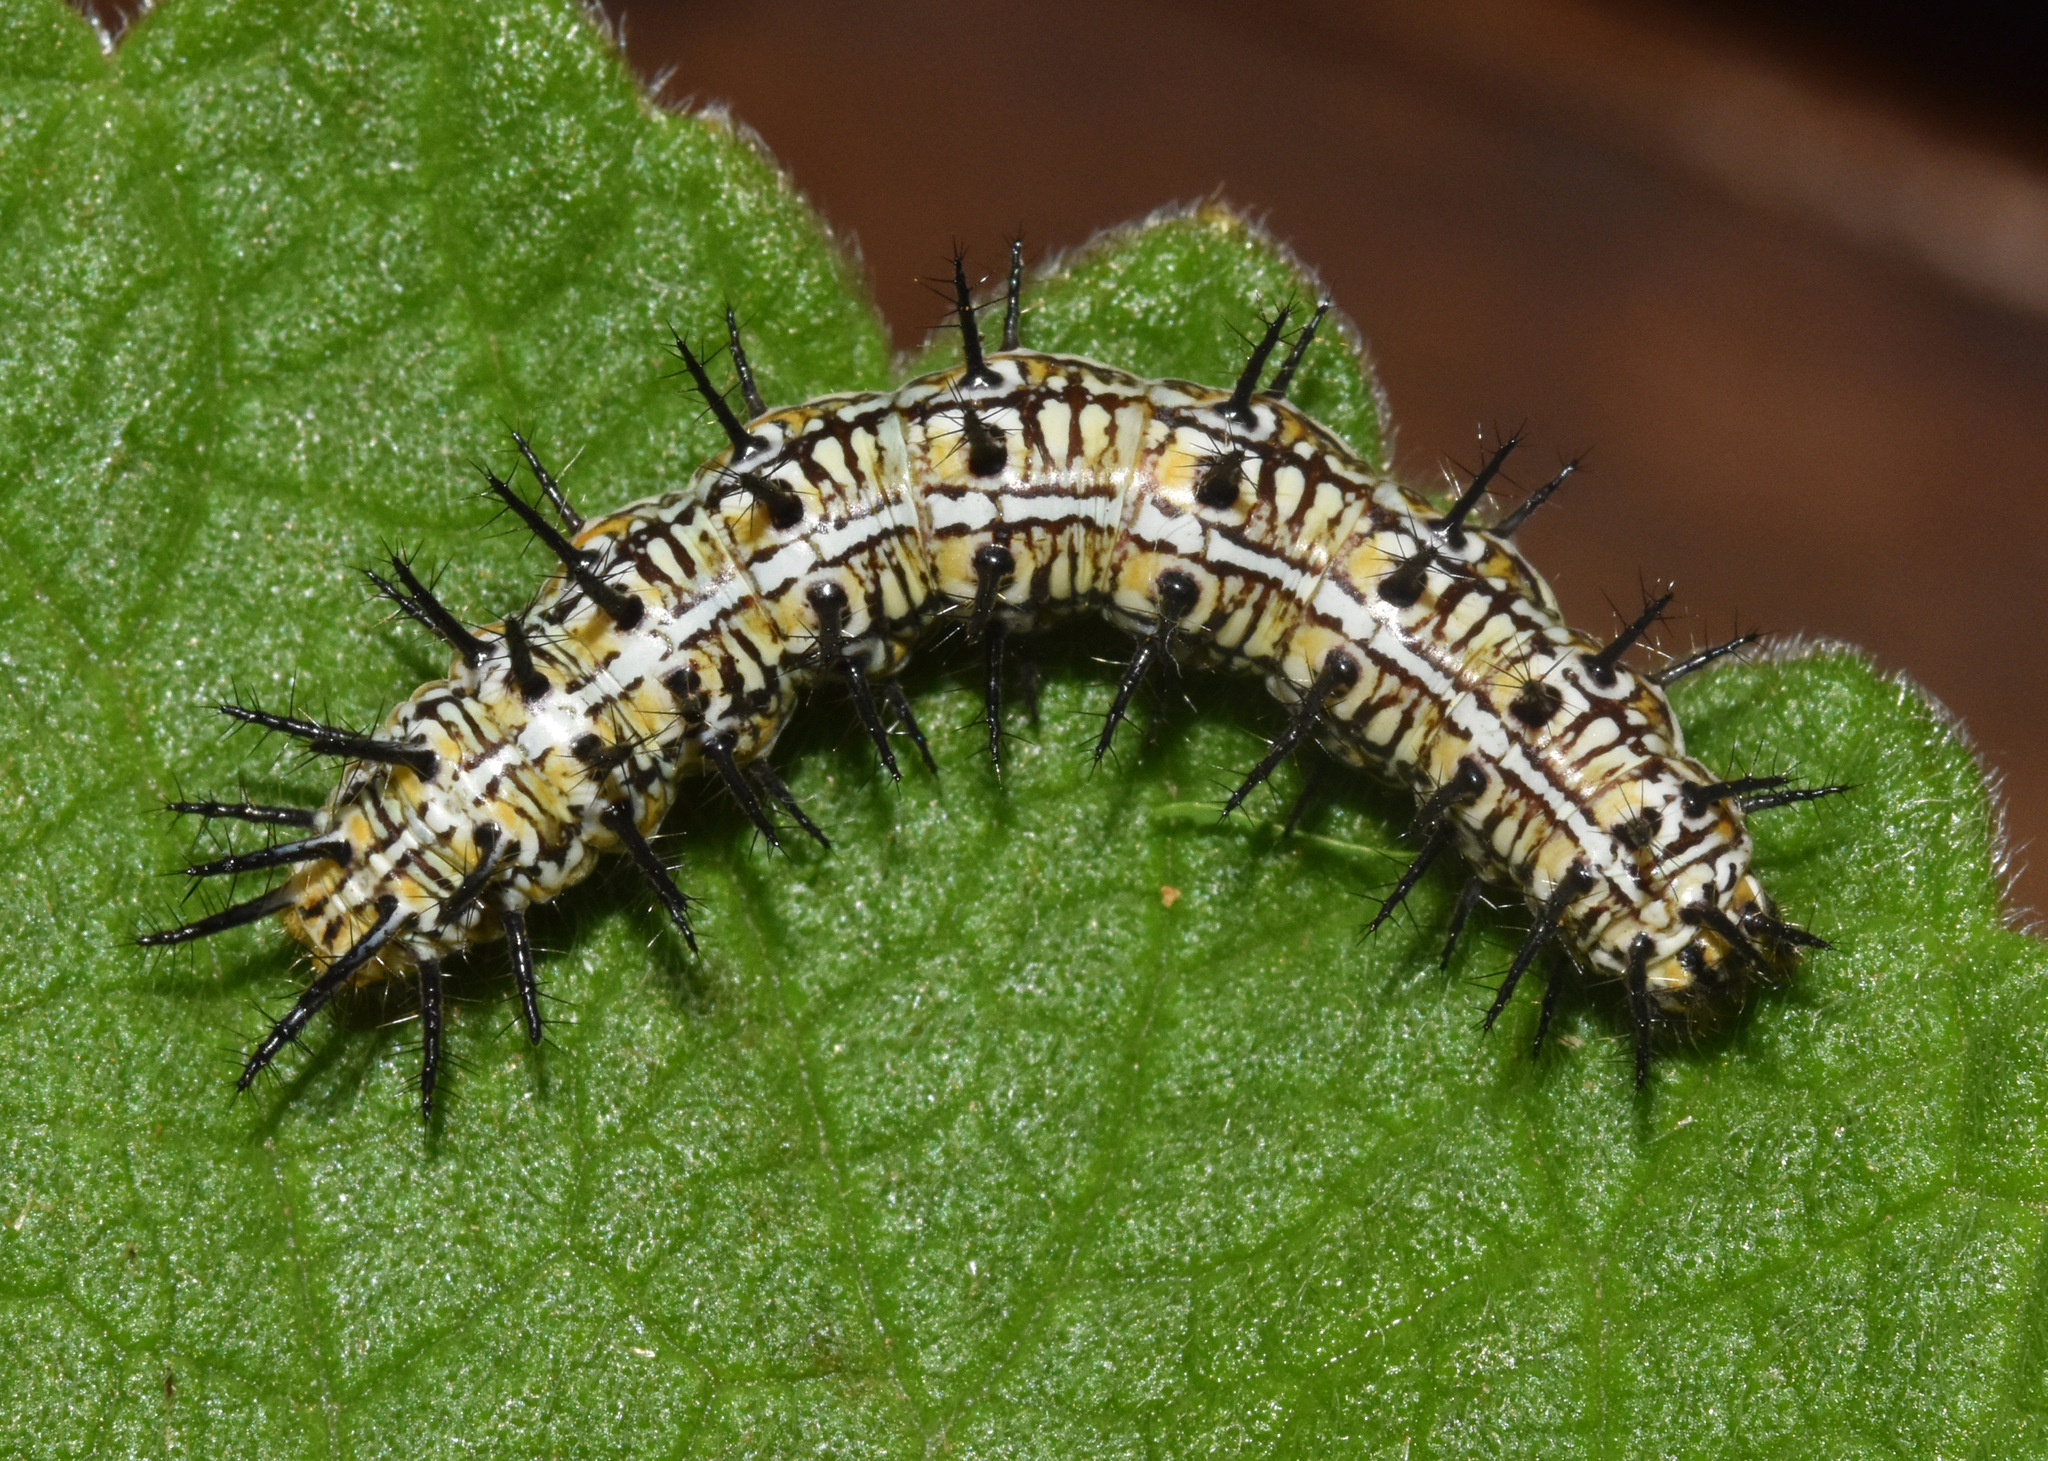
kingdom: Animalia
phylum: Arthropoda
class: Insecta
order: Lepidoptera
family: Nymphalidae
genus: Stephenia
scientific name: Stephenia
